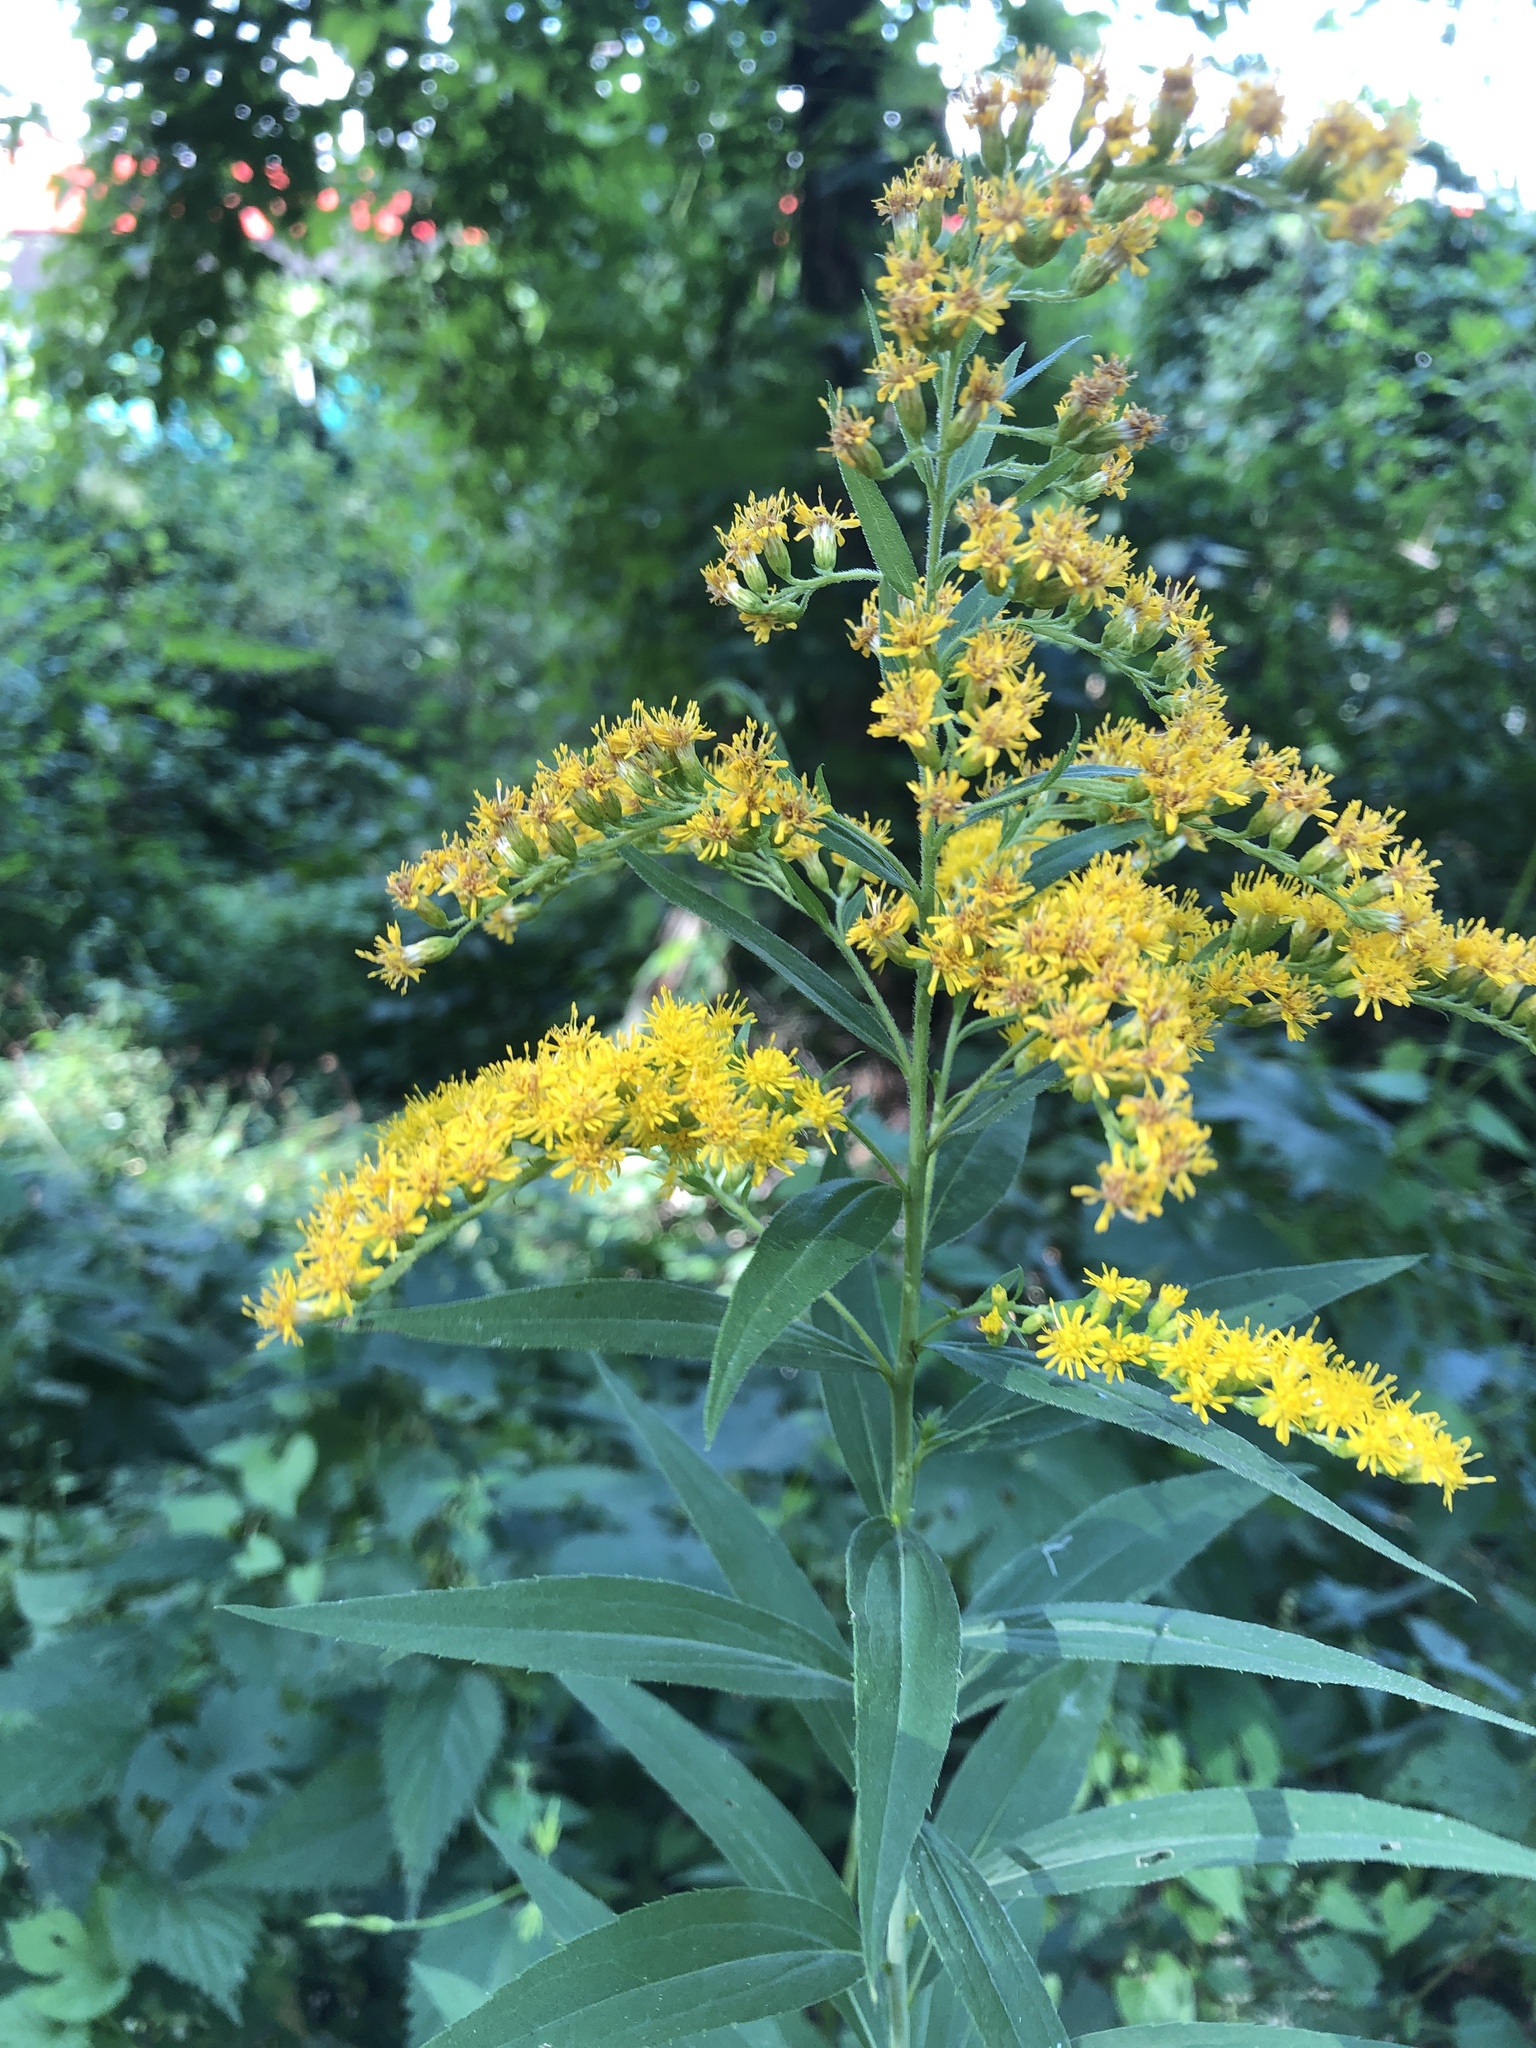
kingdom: Plantae
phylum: Tracheophyta
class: Magnoliopsida
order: Asterales
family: Asteraceae
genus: Solidago
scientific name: Solidago canadensis
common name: Canada goldenrod
